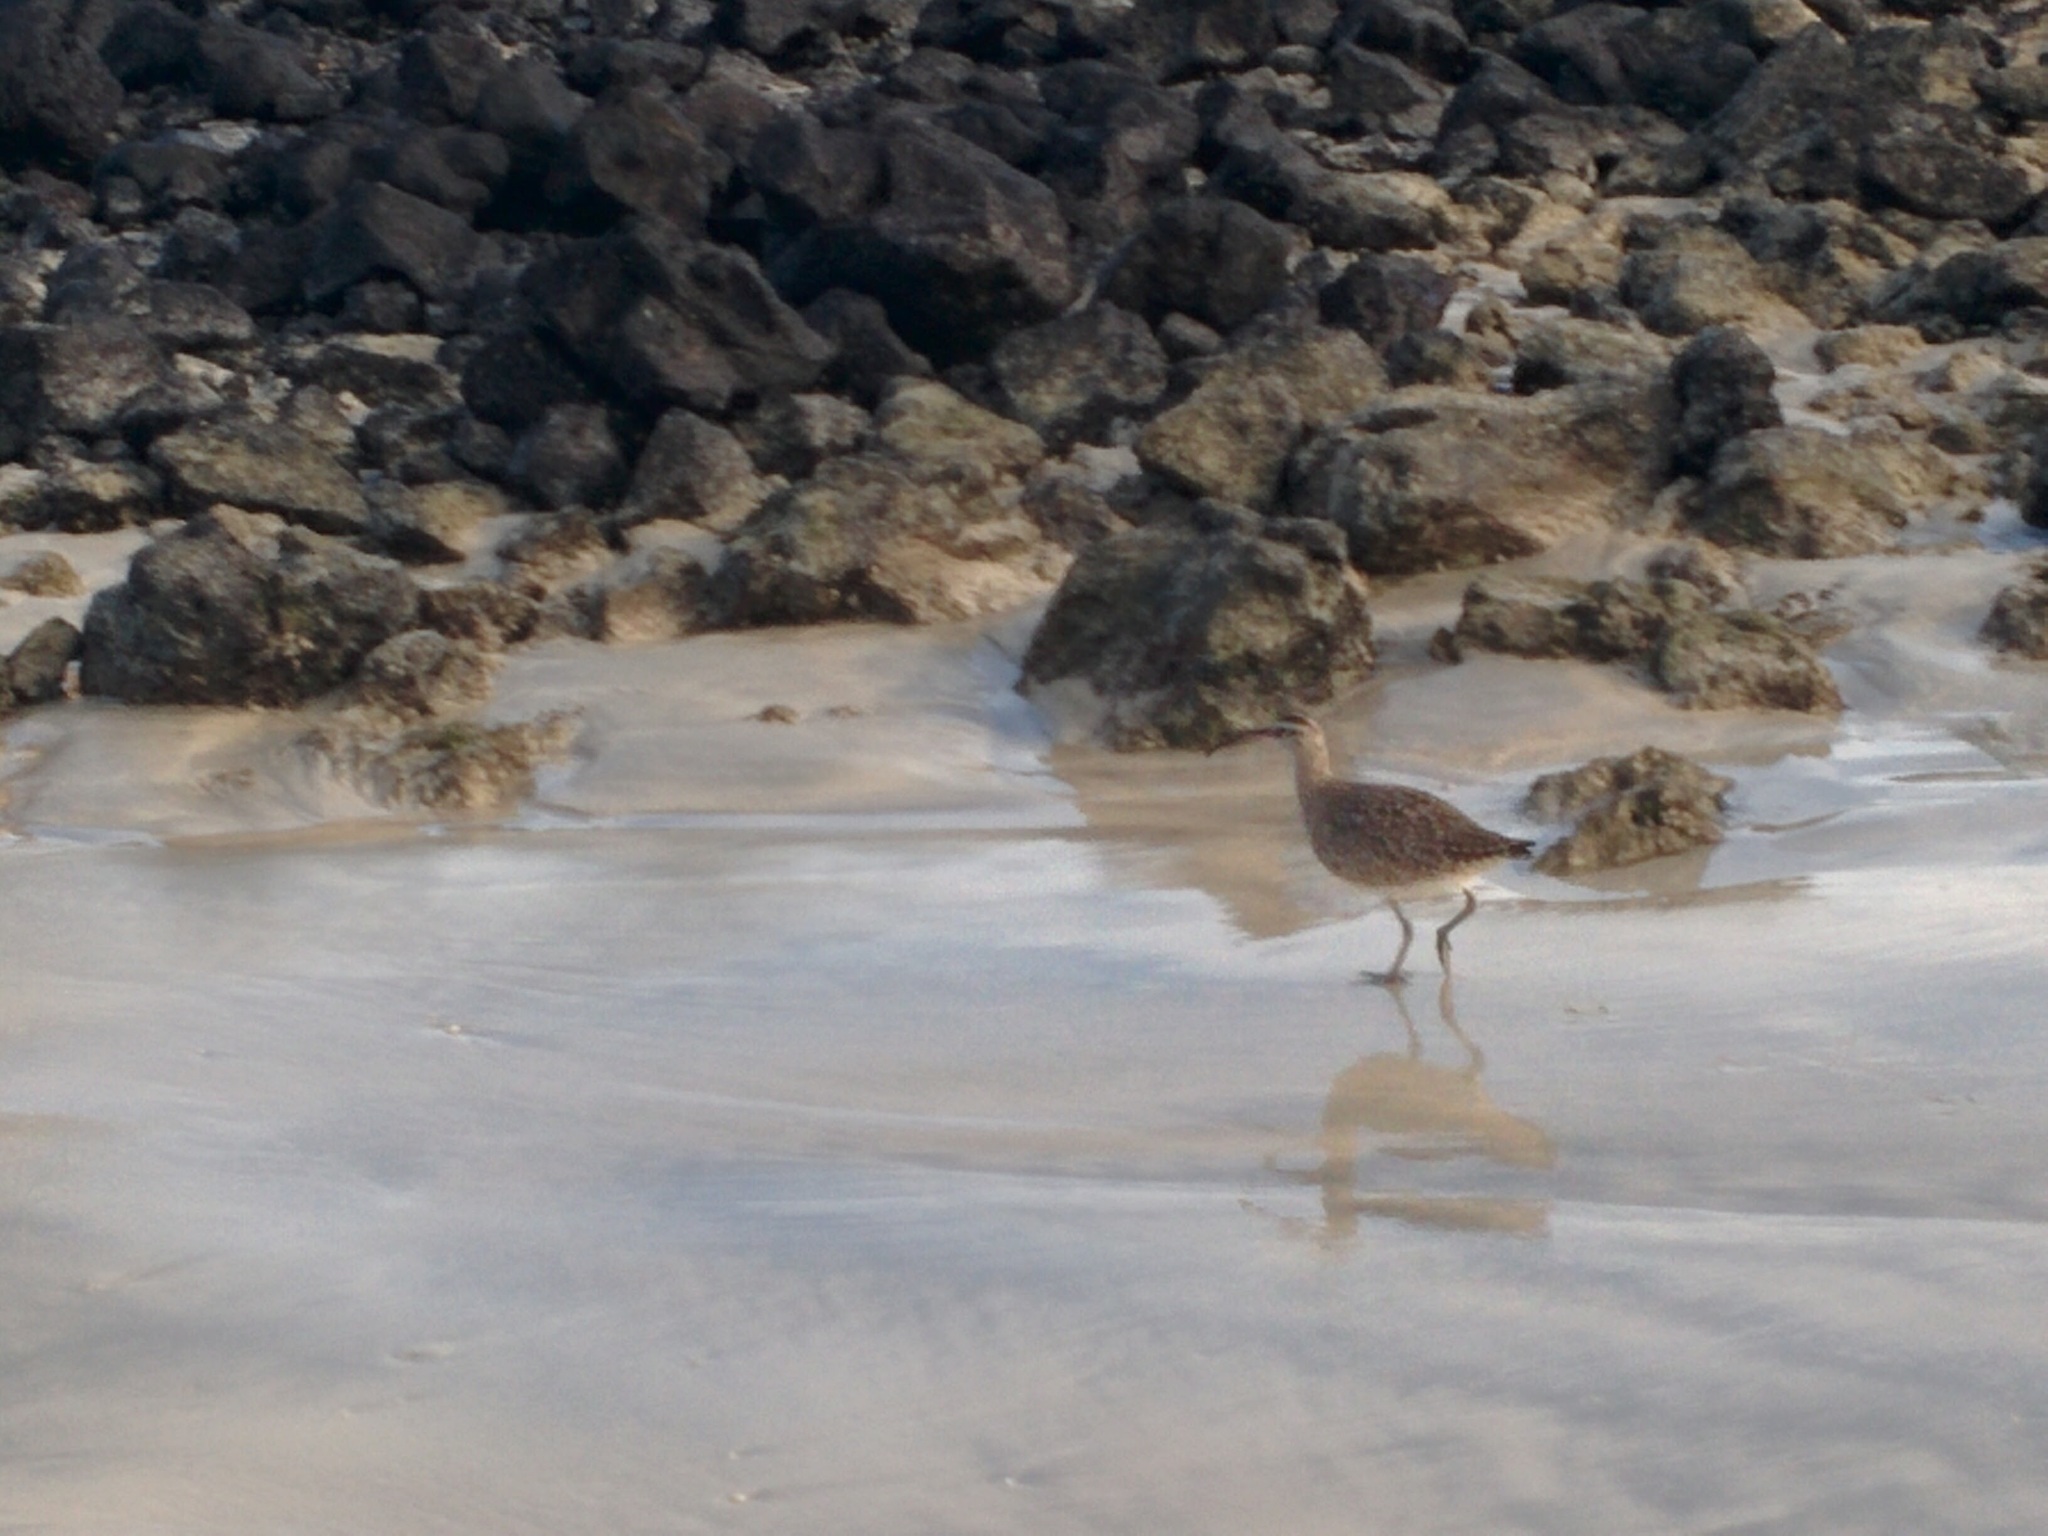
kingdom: Animalia
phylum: Chordata
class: Aves
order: Charadriiformes
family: Scolopacidae
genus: Numenius
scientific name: Numenius hudsonicus
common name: Hudsonian whimbrel
